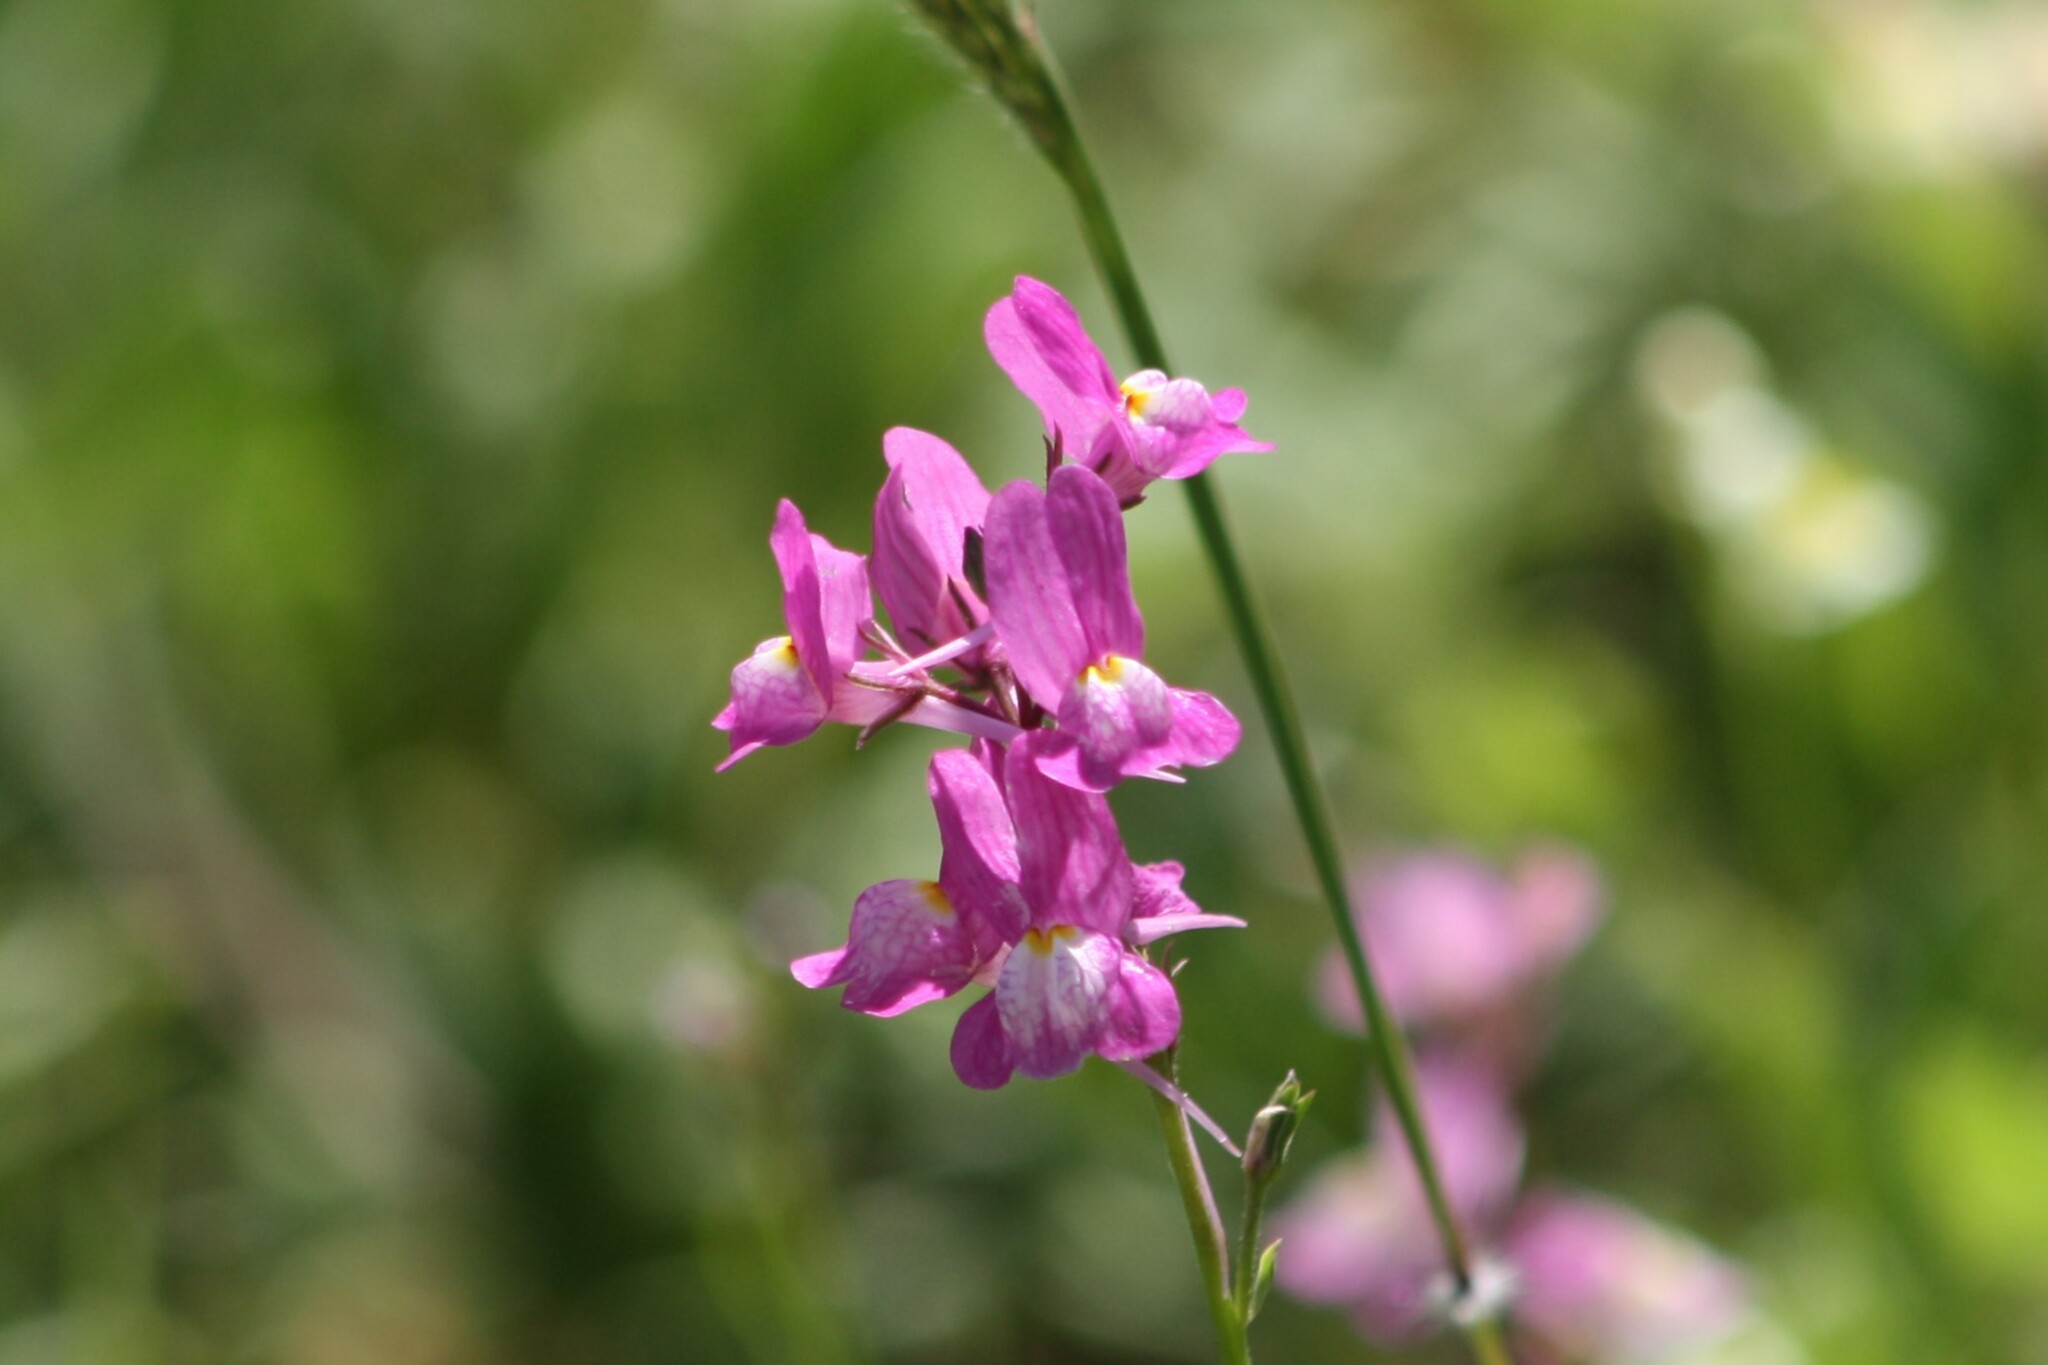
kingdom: Plantae
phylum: Tracheophyta
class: Magnoliopsida
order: Lamiales
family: Plantaginaceae
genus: Linaria
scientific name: Linaria maroccana
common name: Moroccan toadflax
